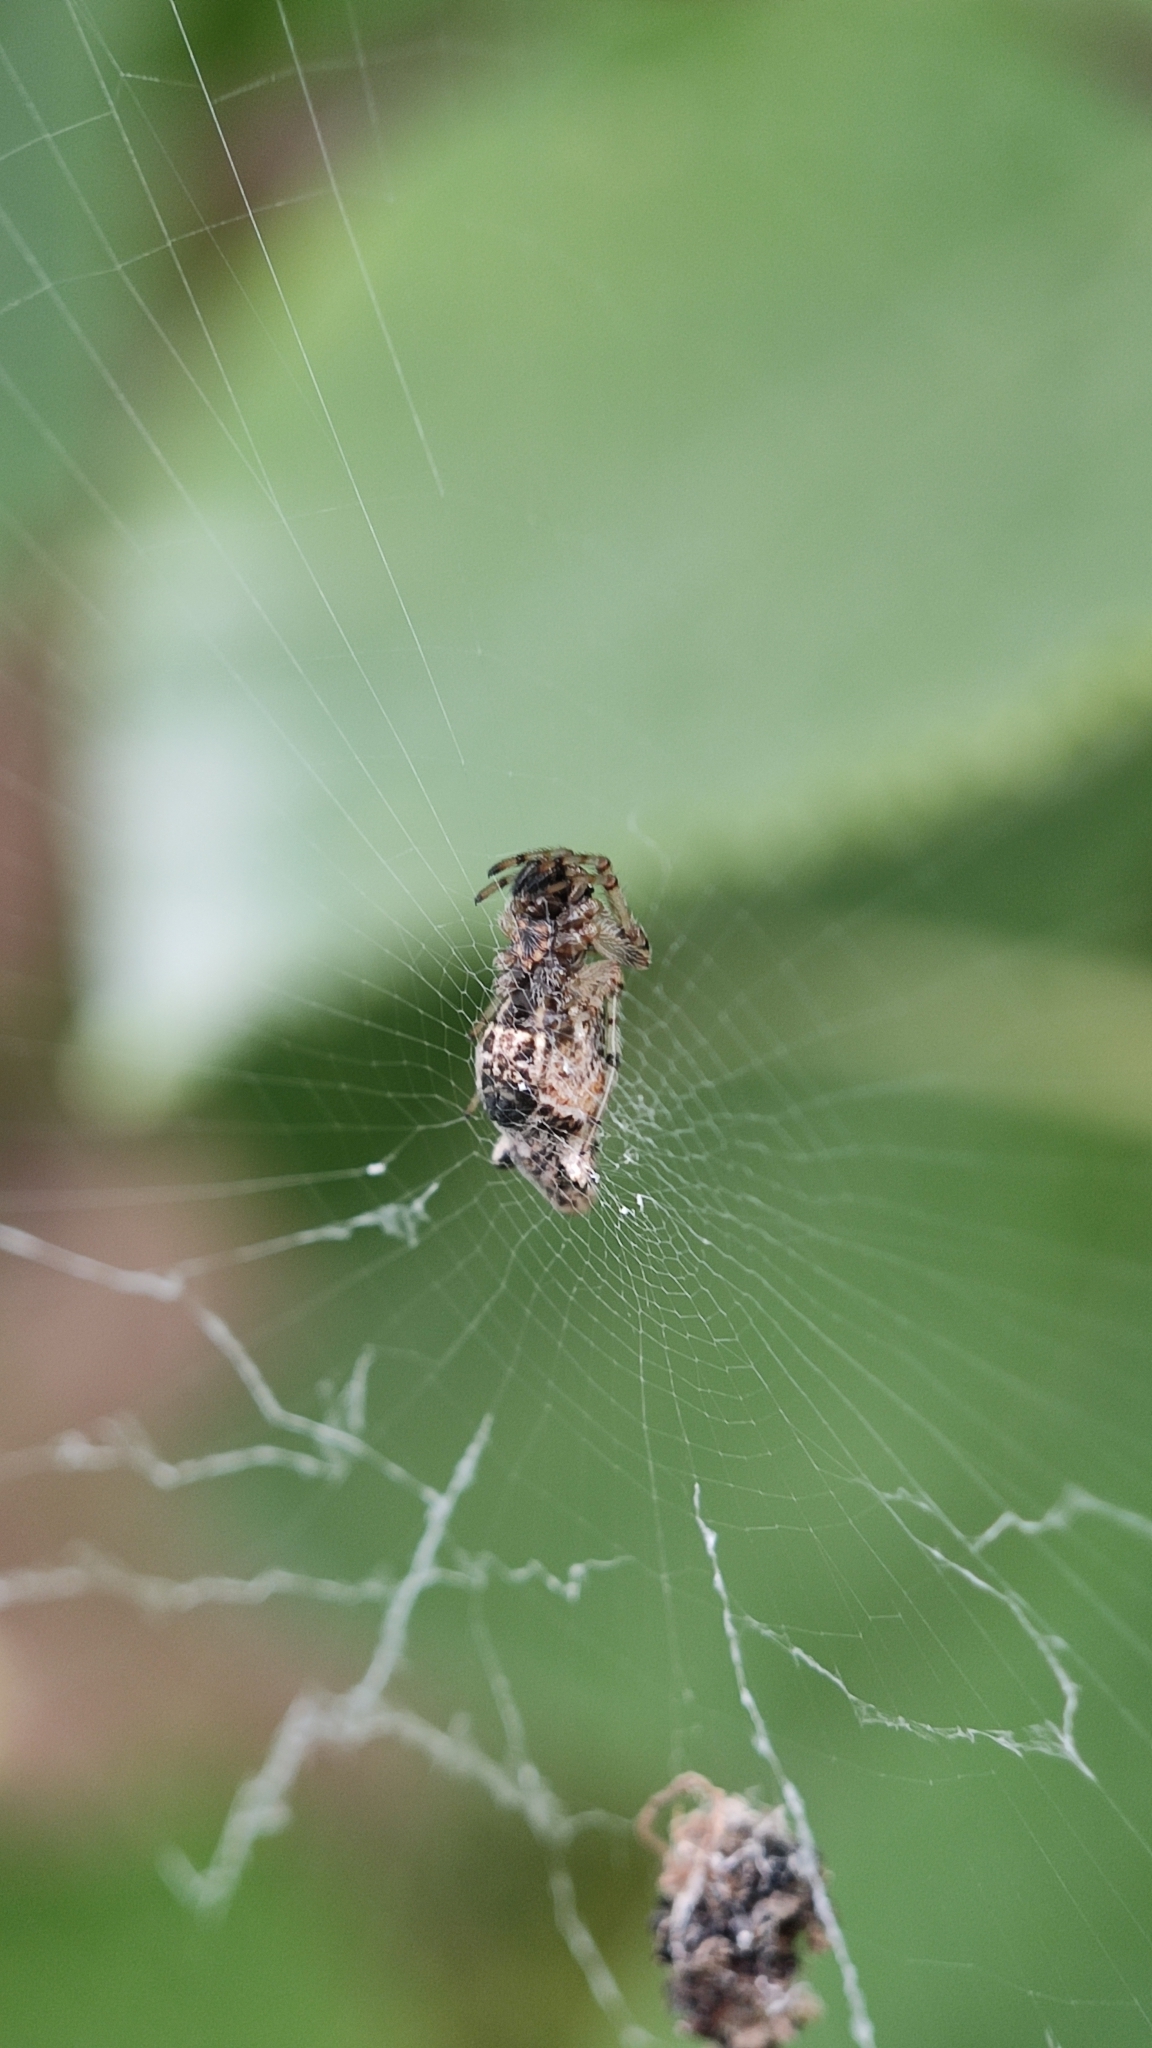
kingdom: Animalia
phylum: Arthropoda
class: Arachnida
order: Araneae
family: Araneidae
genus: Cyclosa
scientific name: Cyclosa insulana
